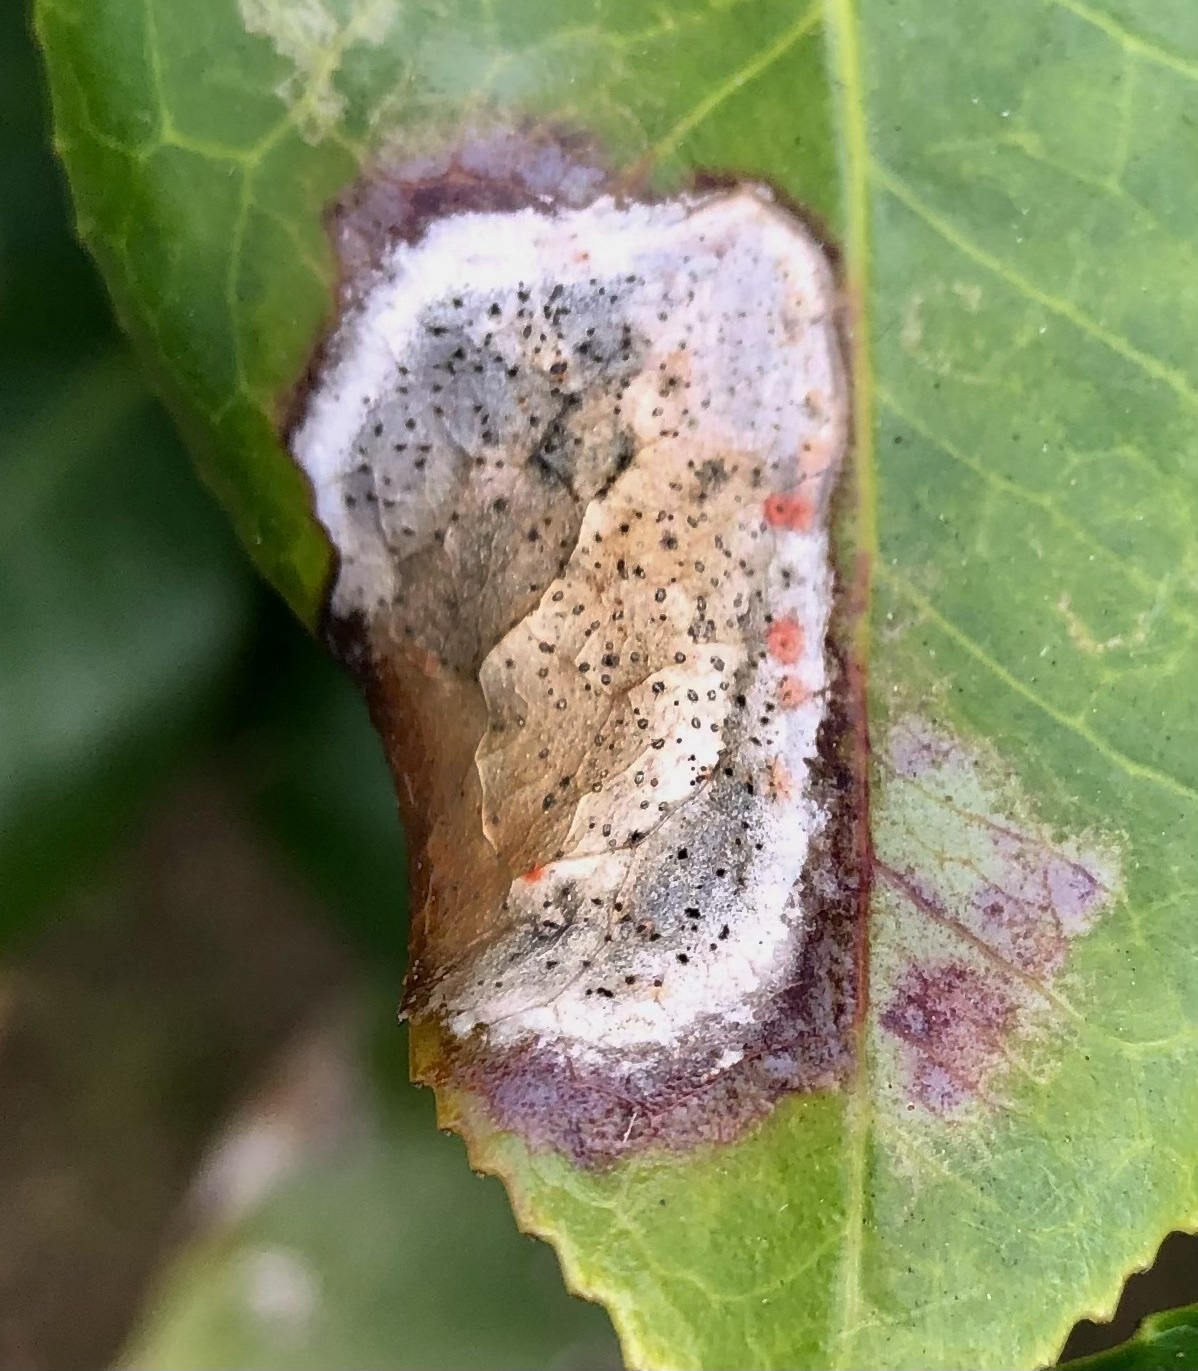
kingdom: Fungi
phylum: Ascomycota
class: Dothideomycetes
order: Botryosphaeriales
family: Phyllostictaceae
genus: Phyllosticta
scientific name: Phyllosticta camelliae
